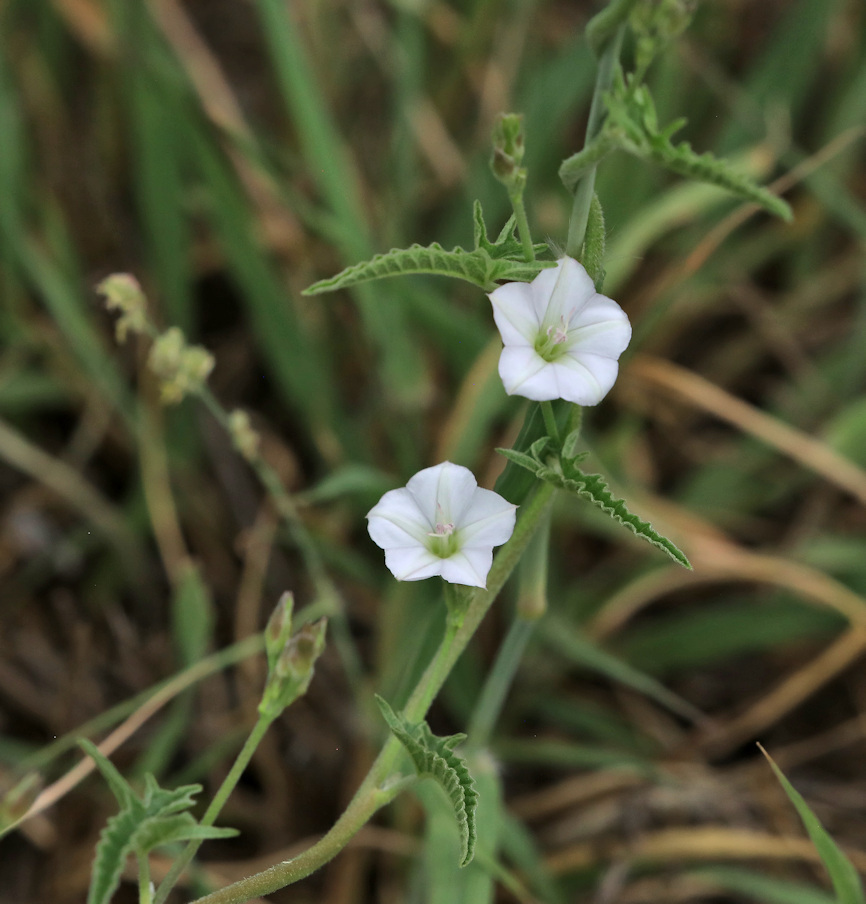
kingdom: Plantae
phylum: Tracheophyta
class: Magnoliopsida
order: Solanales
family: Convolvulaceae
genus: Convolvulus
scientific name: Convolvulus sagittatus
